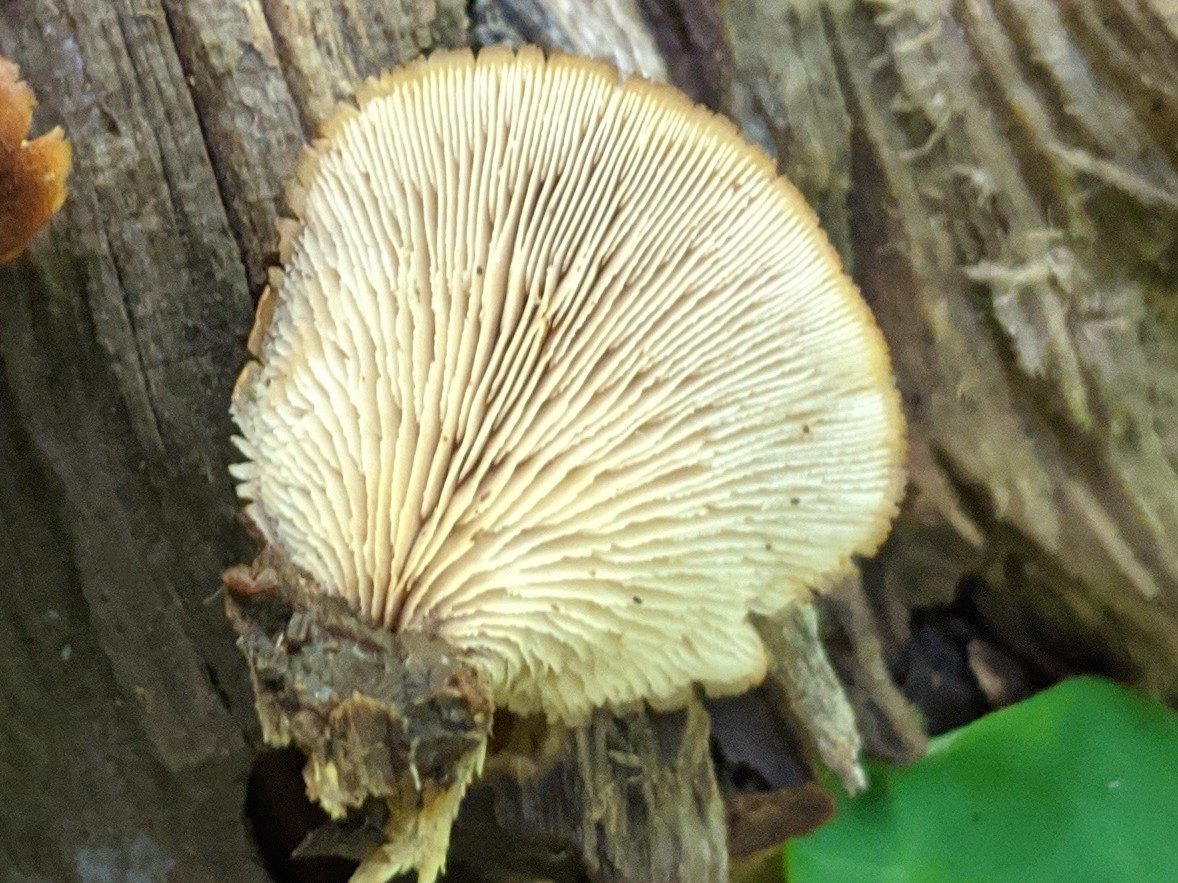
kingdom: Fungi
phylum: Basidiomycota
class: Agaricomycetes
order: Russulales
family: Auriscalpiaceae
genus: Lentinellus
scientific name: Lentinellus ursinus
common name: Bear lentinus
